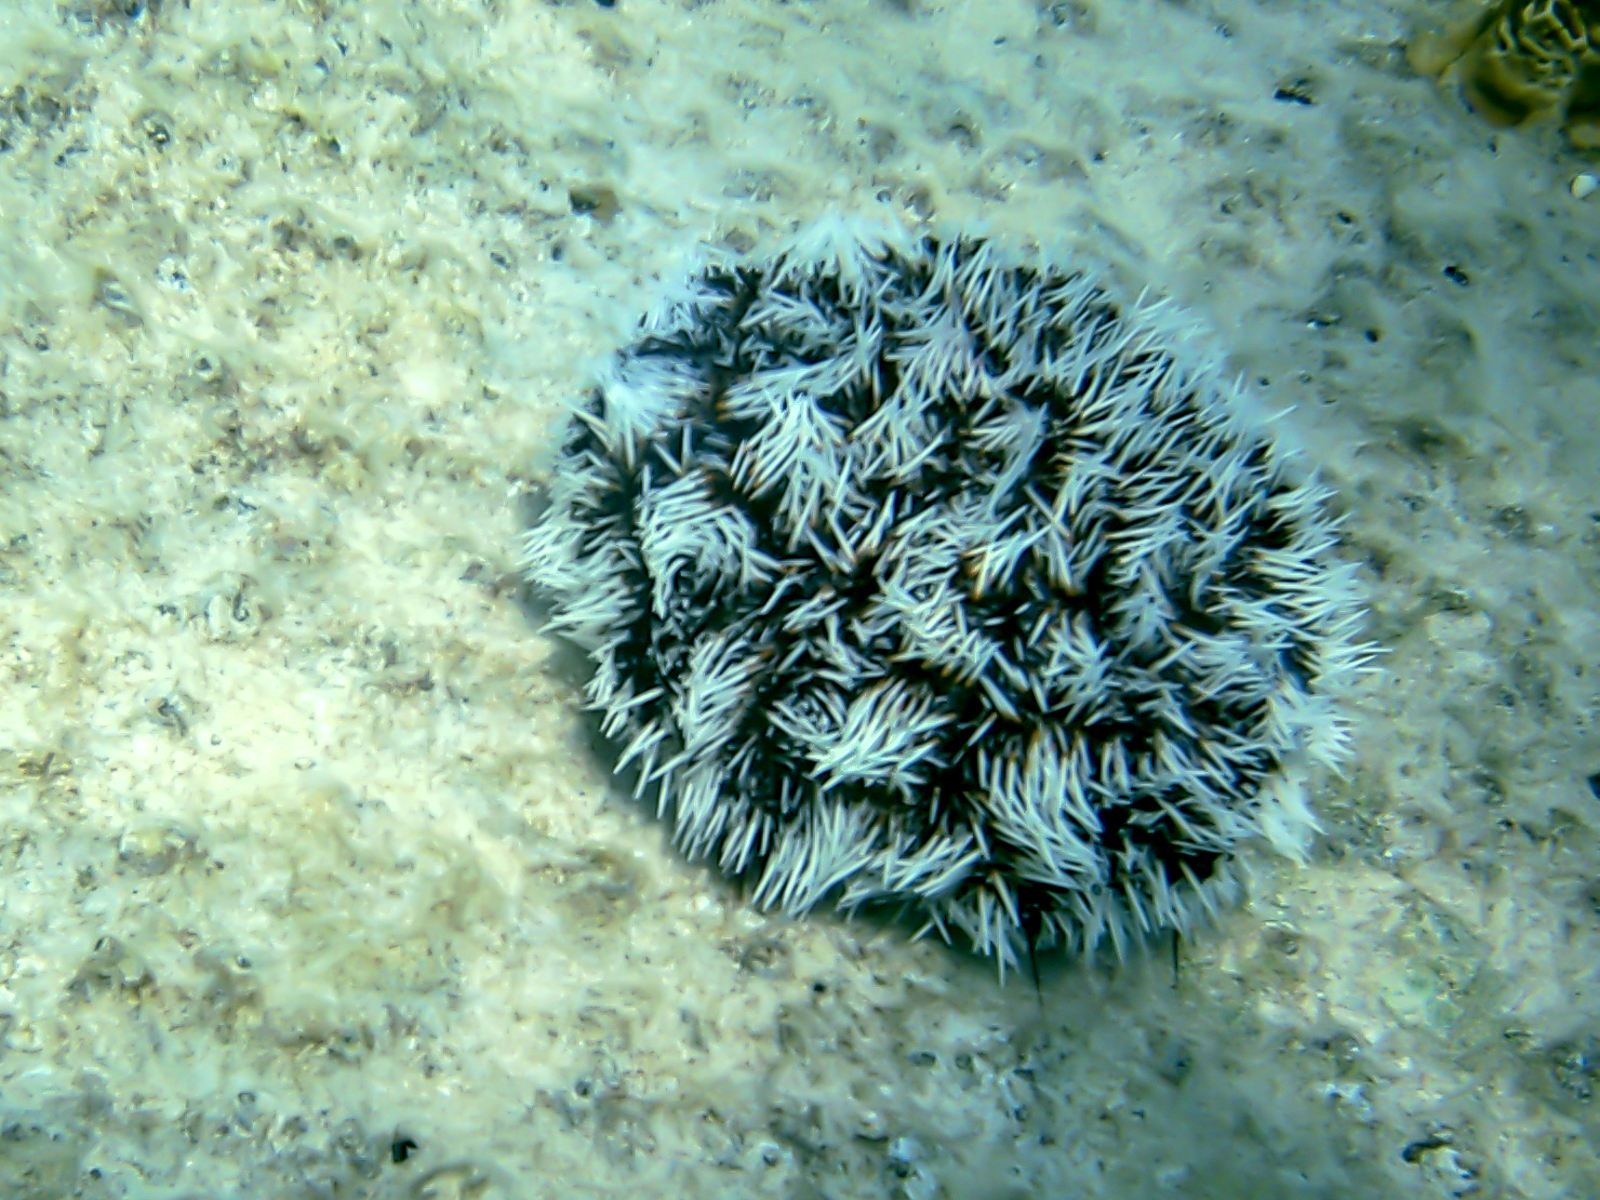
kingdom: Animalia
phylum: Echinodermata
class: Echinoidea
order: Camarodonta
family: Toxopneustidae
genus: Tripneustes
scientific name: Tripneustes ventricosus
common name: West indian sea egg
